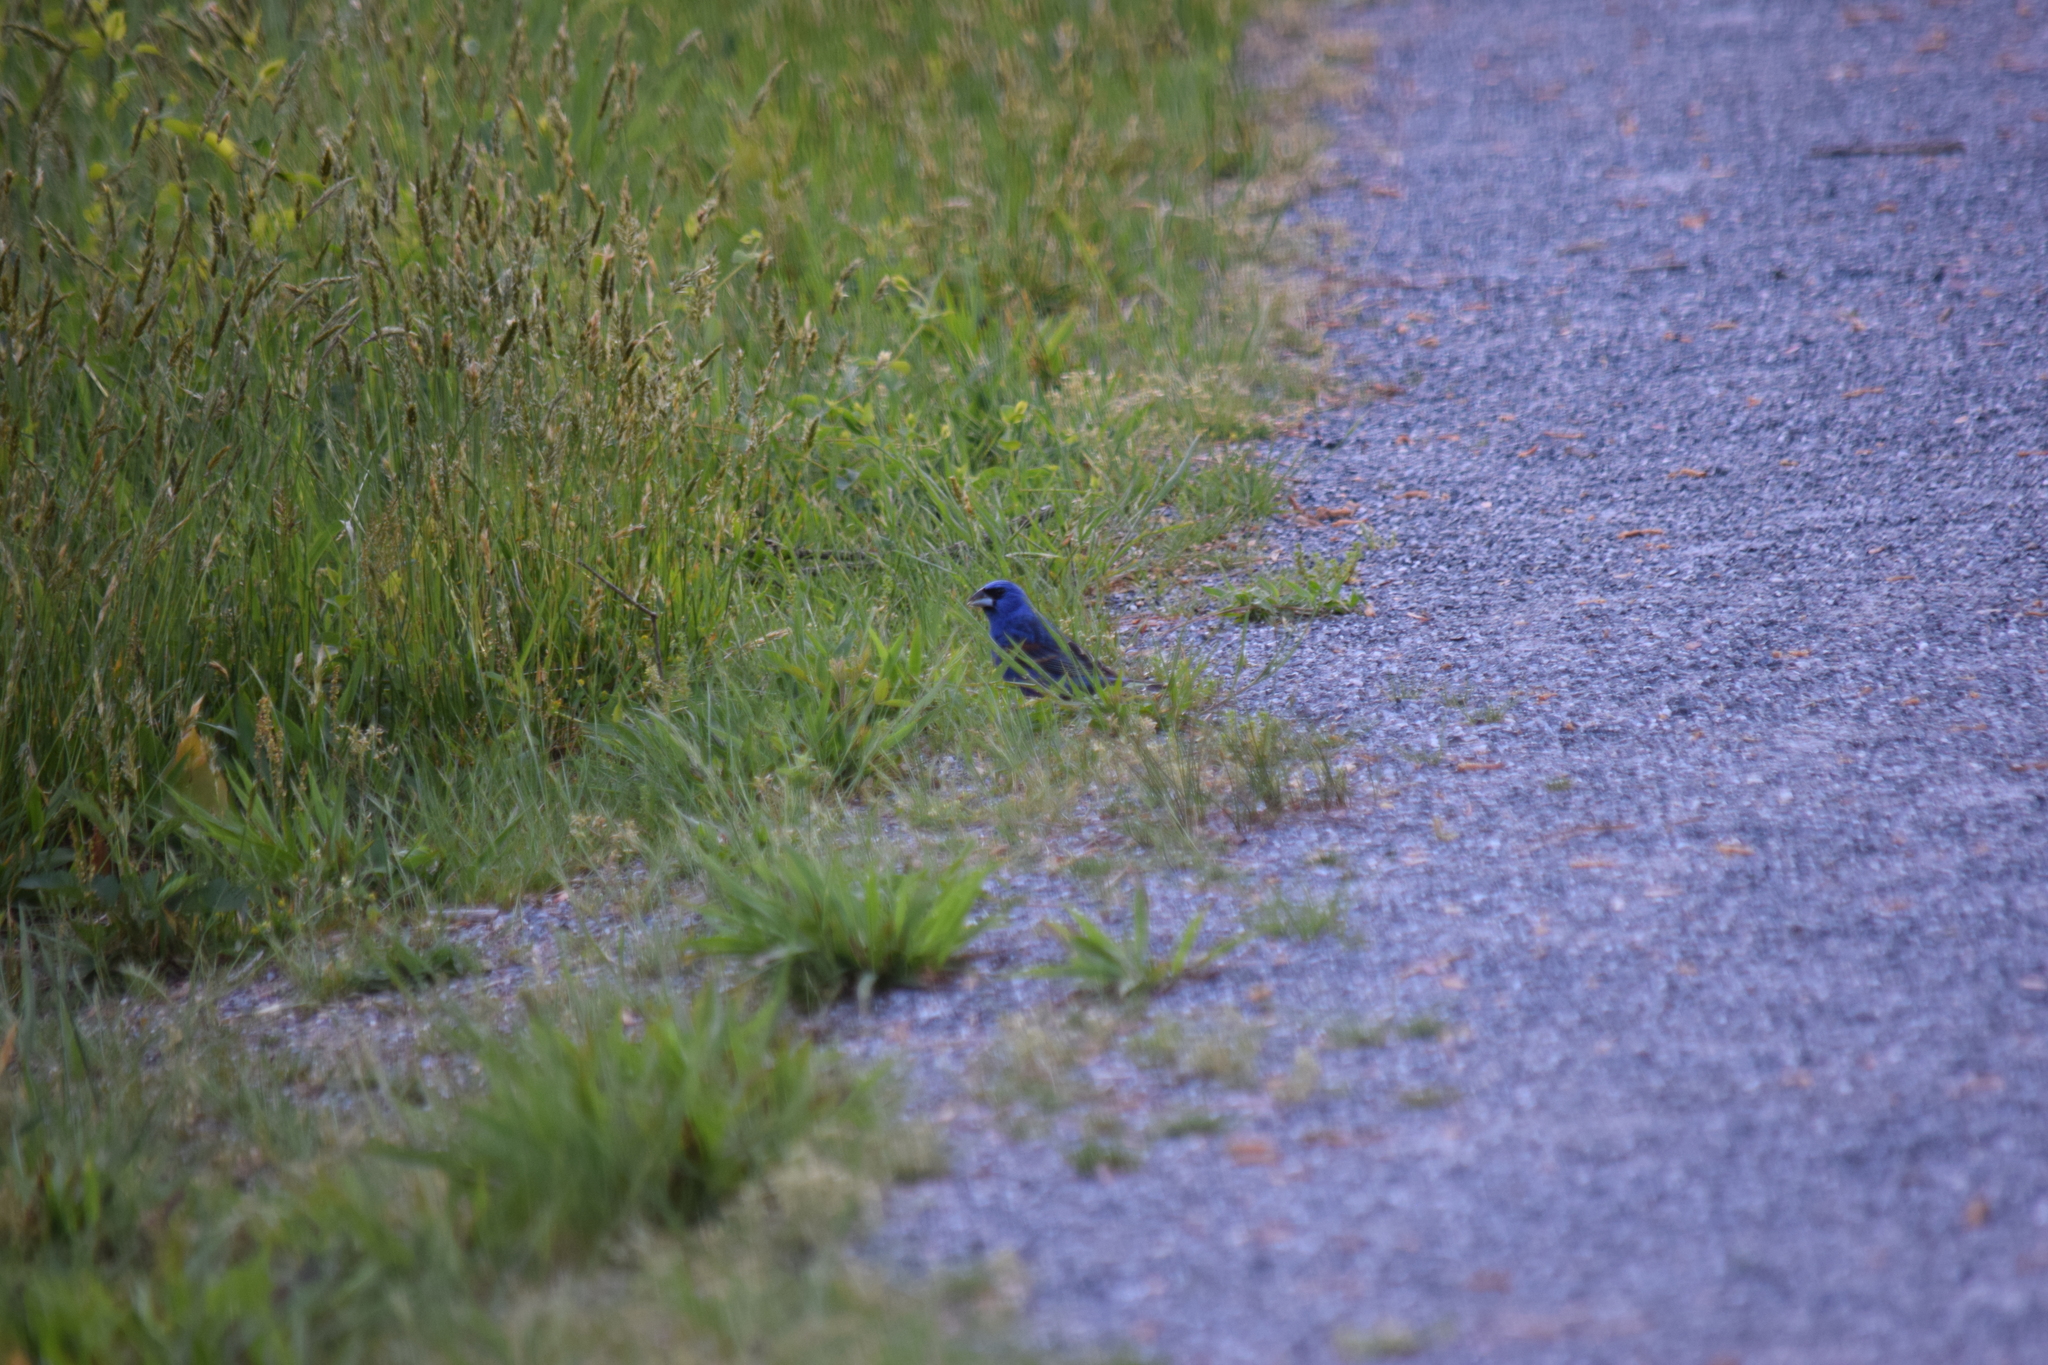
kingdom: Animalia
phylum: Chordata
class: Aves
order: Passeriformes
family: Cardinalidae
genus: Passerina
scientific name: Passerina caerulea
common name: Blue grosbeak
